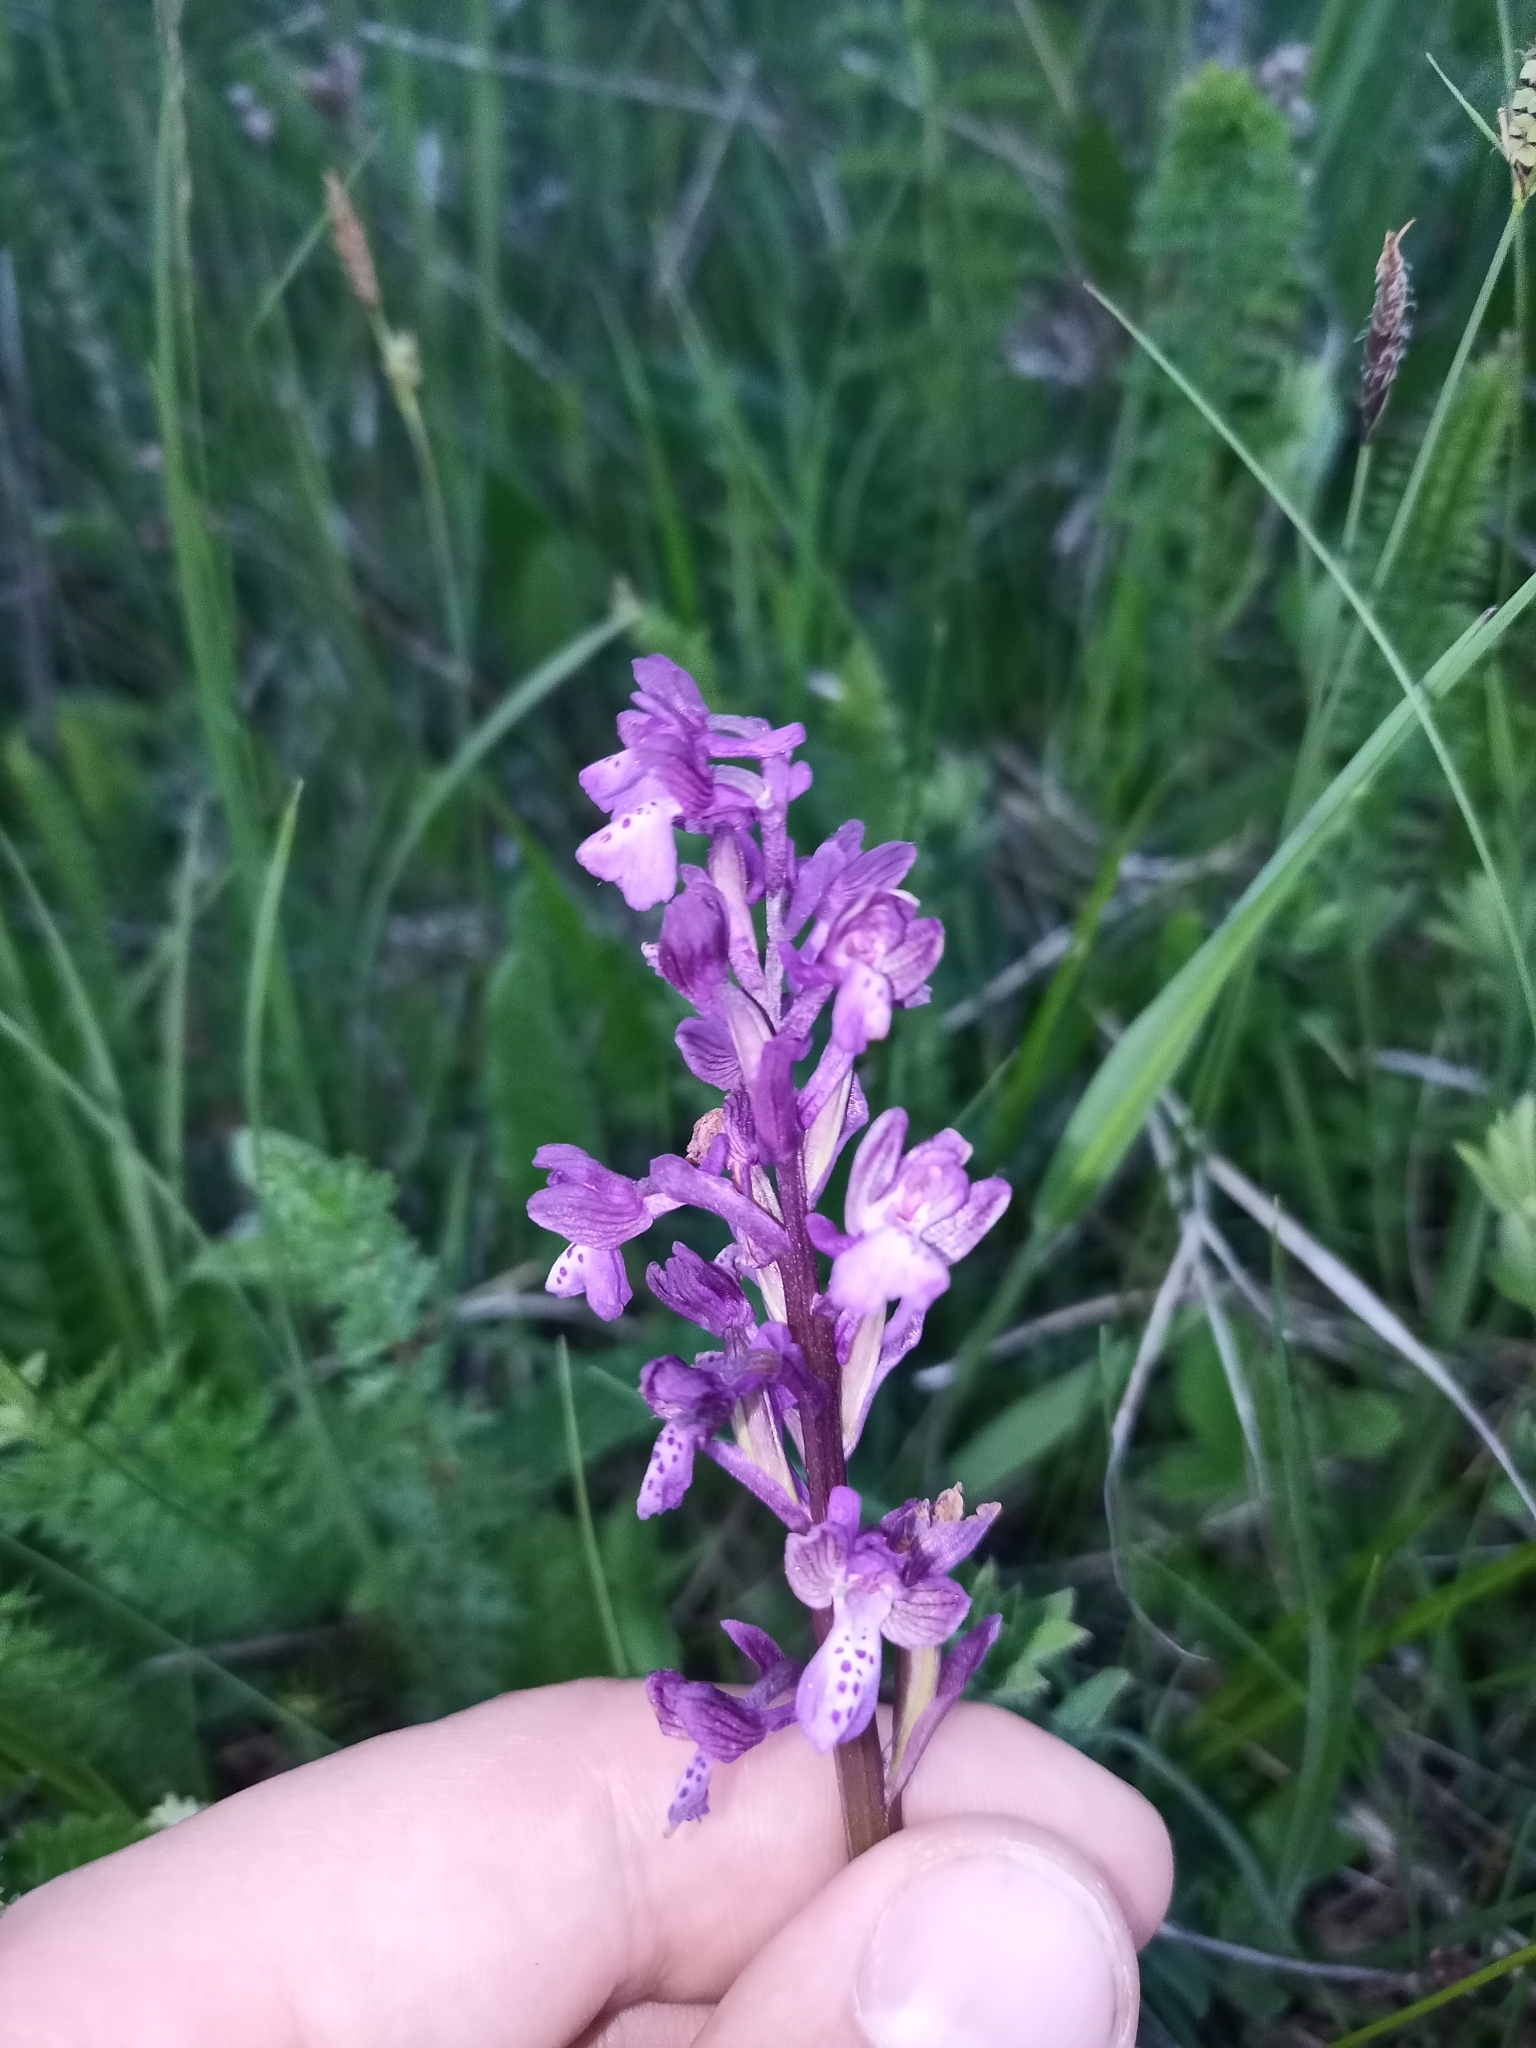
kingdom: Plantae
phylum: Tracheophyta
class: Liliopsida
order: Asparagales
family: Orchidaceae
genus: Orchis
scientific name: Orchis mascula
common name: Early-purple orchid
